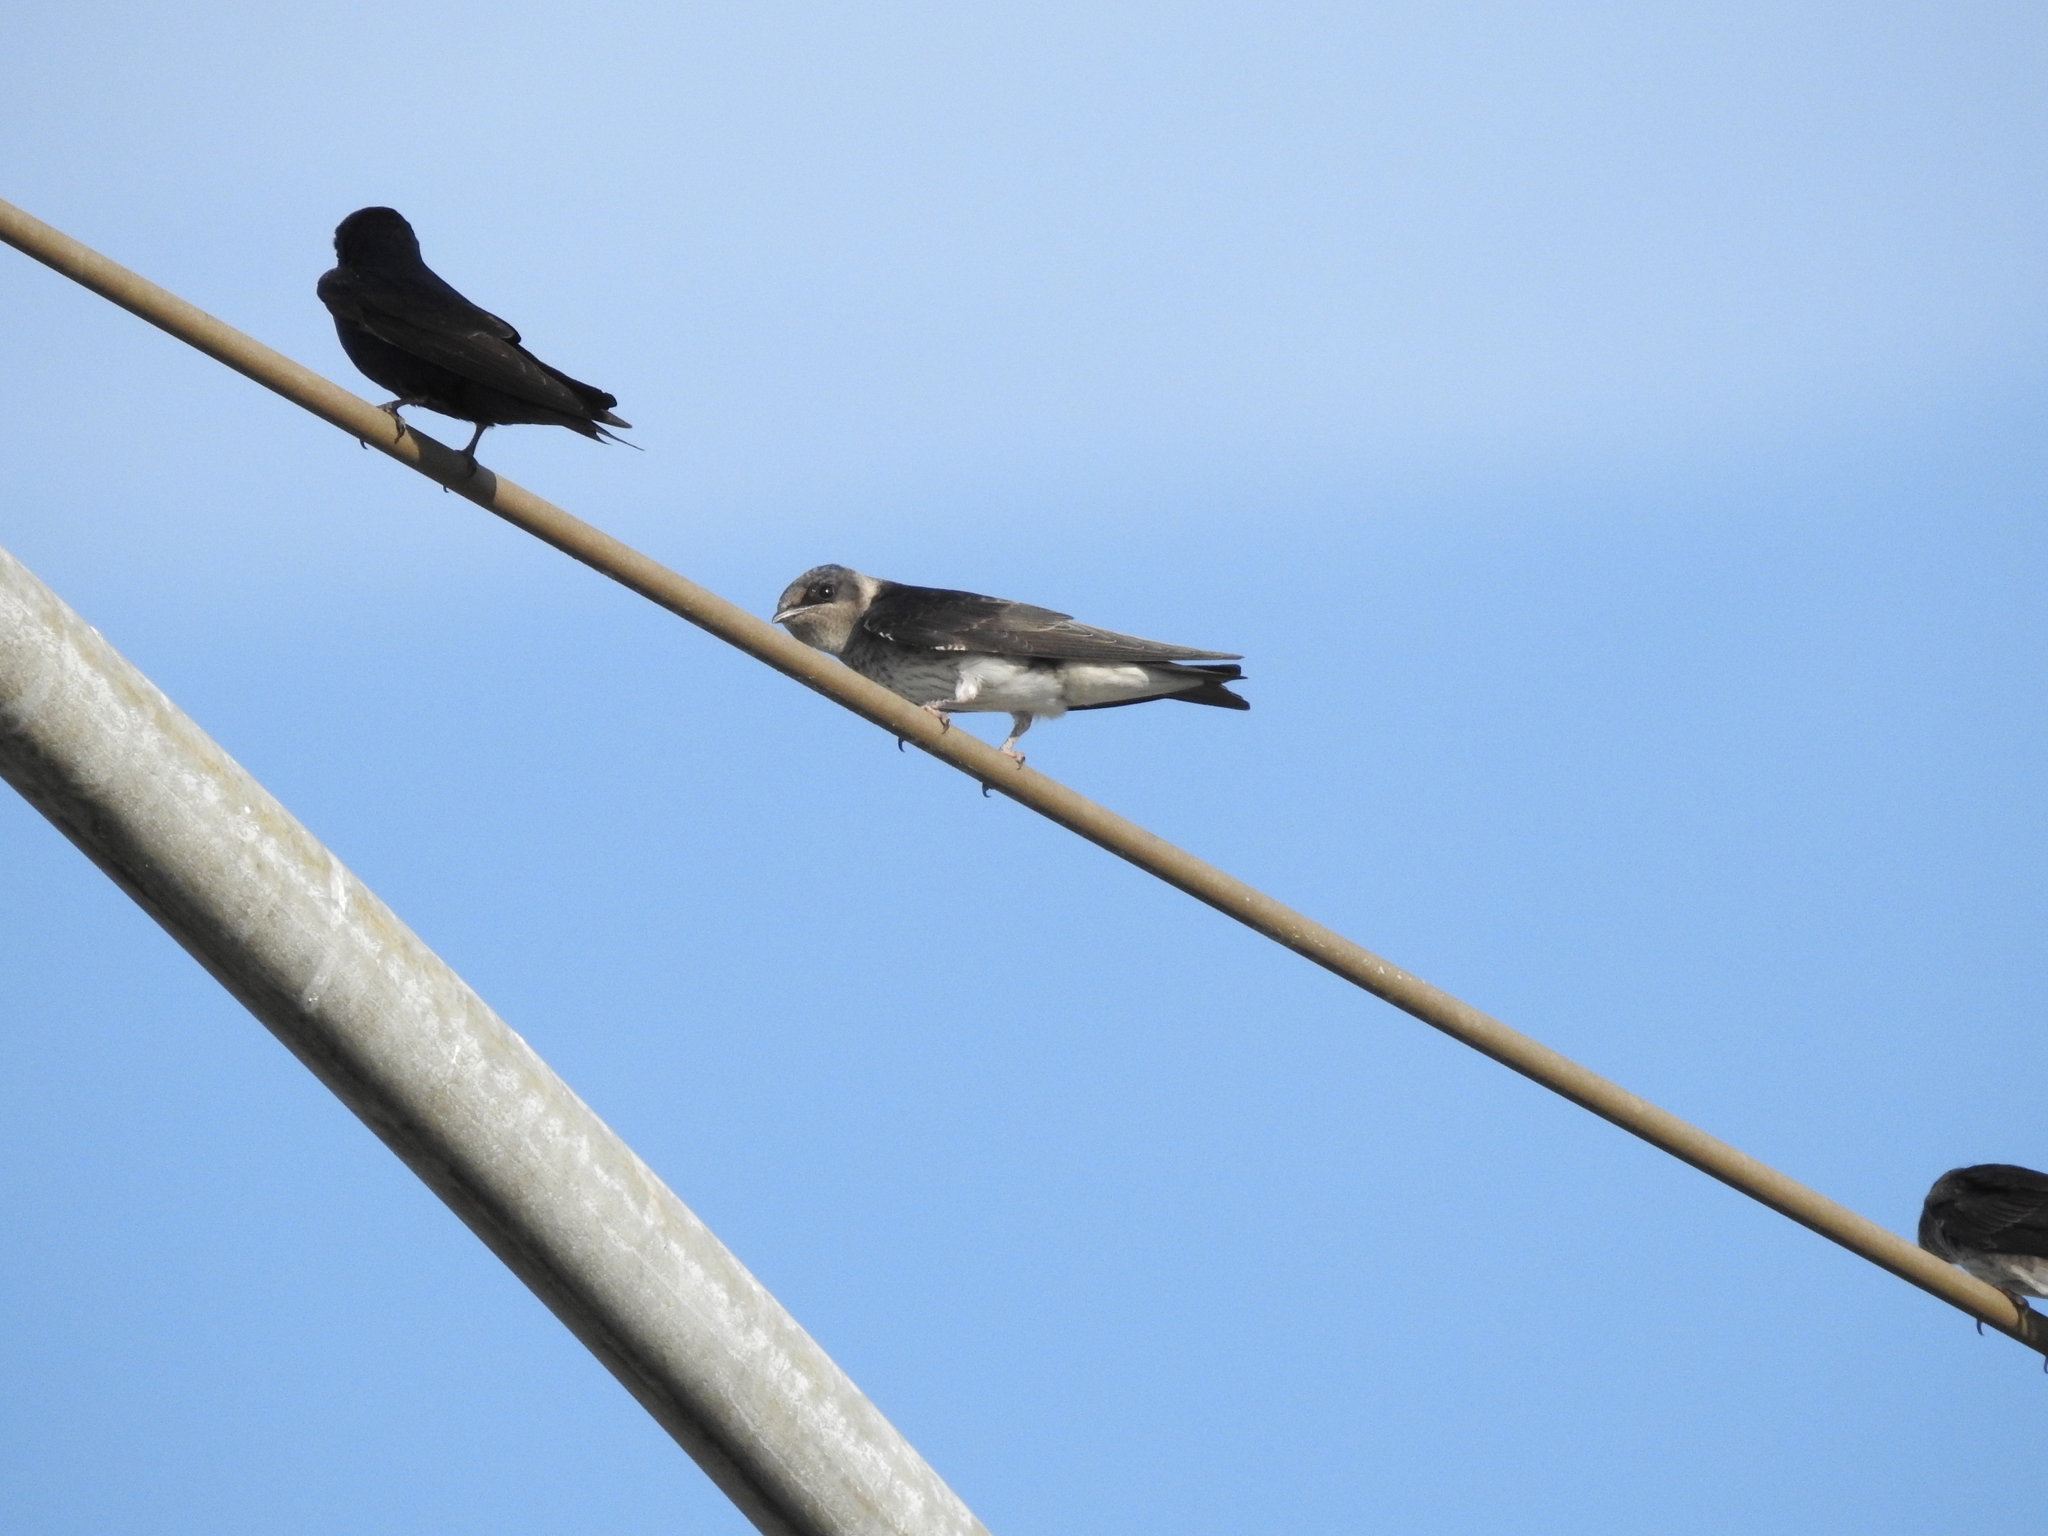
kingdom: Animalia
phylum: Chordata
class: Aves
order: Passeriformes
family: Hirundinidae
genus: Progne
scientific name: Progne subis
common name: Purple martin
